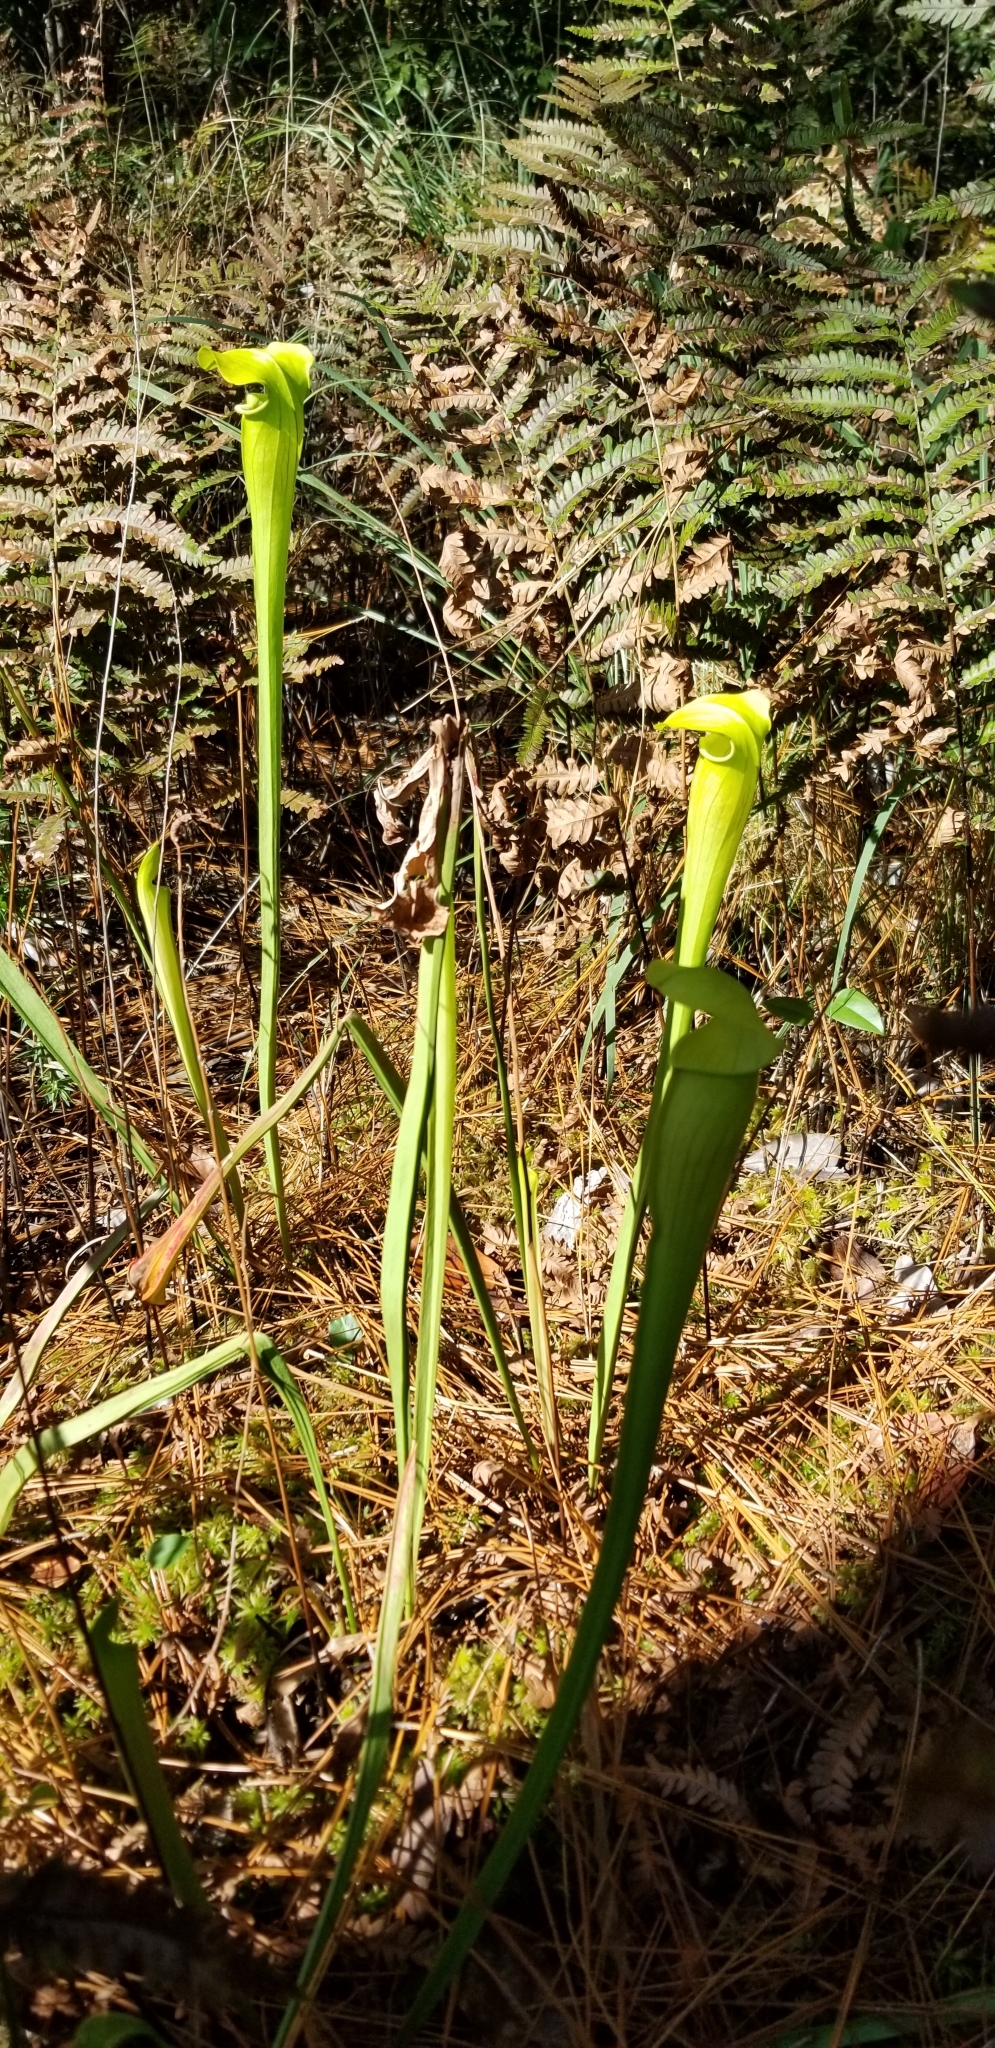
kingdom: Plantae
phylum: Tracheophyta
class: Magnoliopsida
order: Ericales
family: Sarraceniaceae
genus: Sarracenia
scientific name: Sarracenia alata
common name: Yellow trumpets
